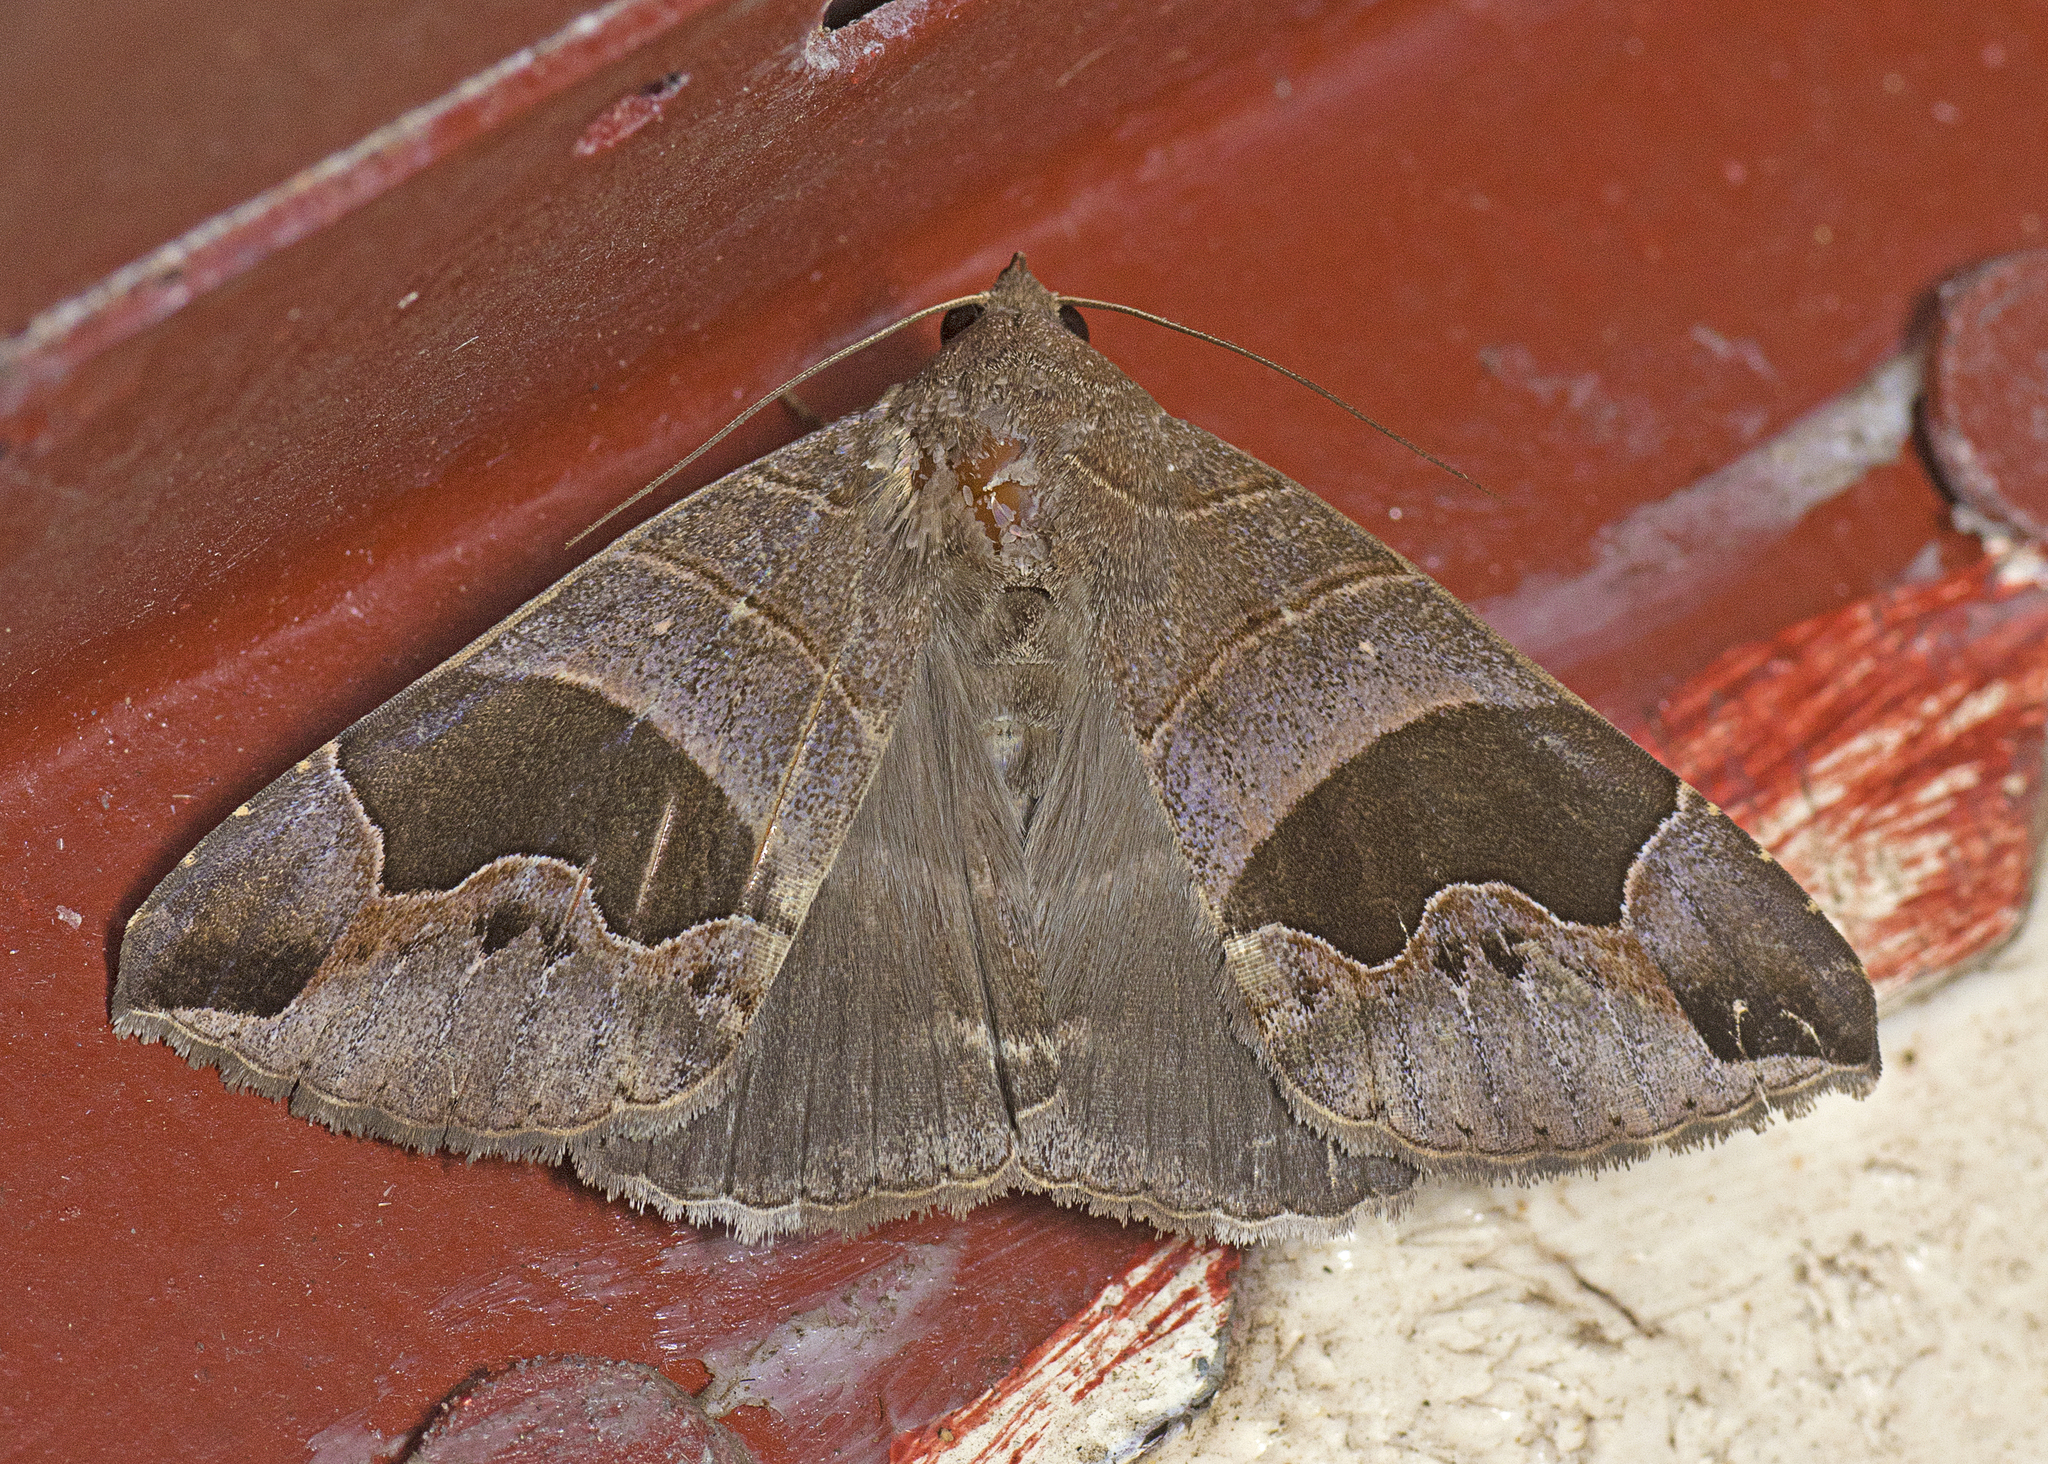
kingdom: Animalia
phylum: Arthropoda
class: Insecta
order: Lepidoptera
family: Erebidae
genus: Bastilla
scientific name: Bastilla solomonensis
